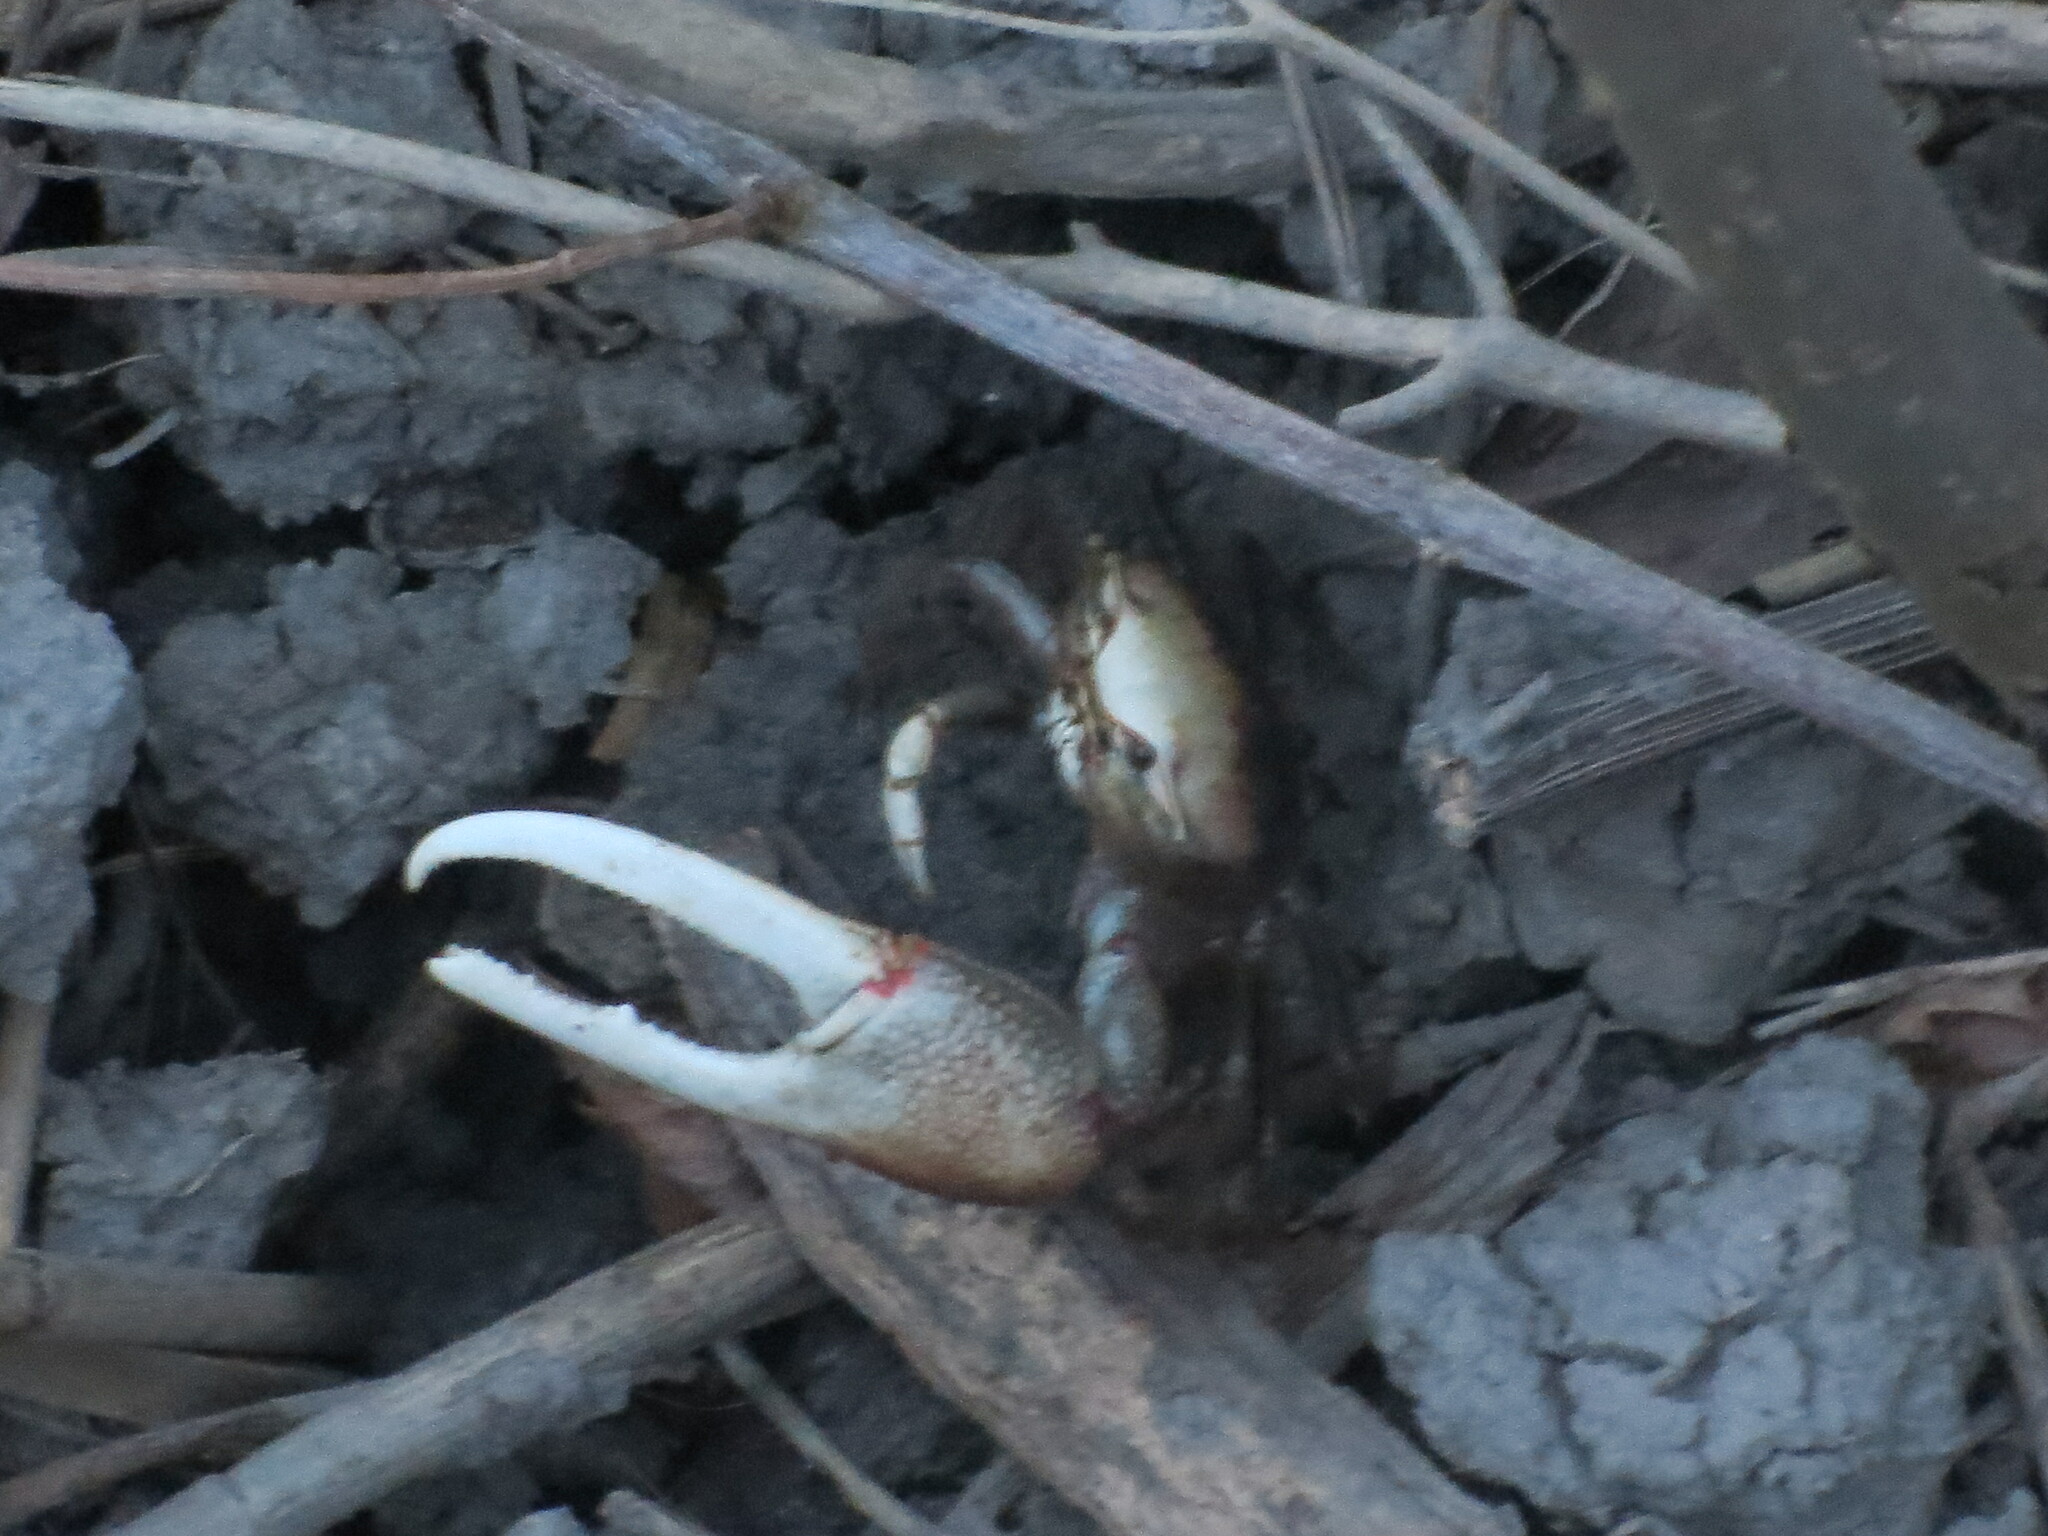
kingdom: Animalia
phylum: Arthropoda
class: Malacostraca
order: Decapoda
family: Ocypodidae
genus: Minuca
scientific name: Minuca minax
